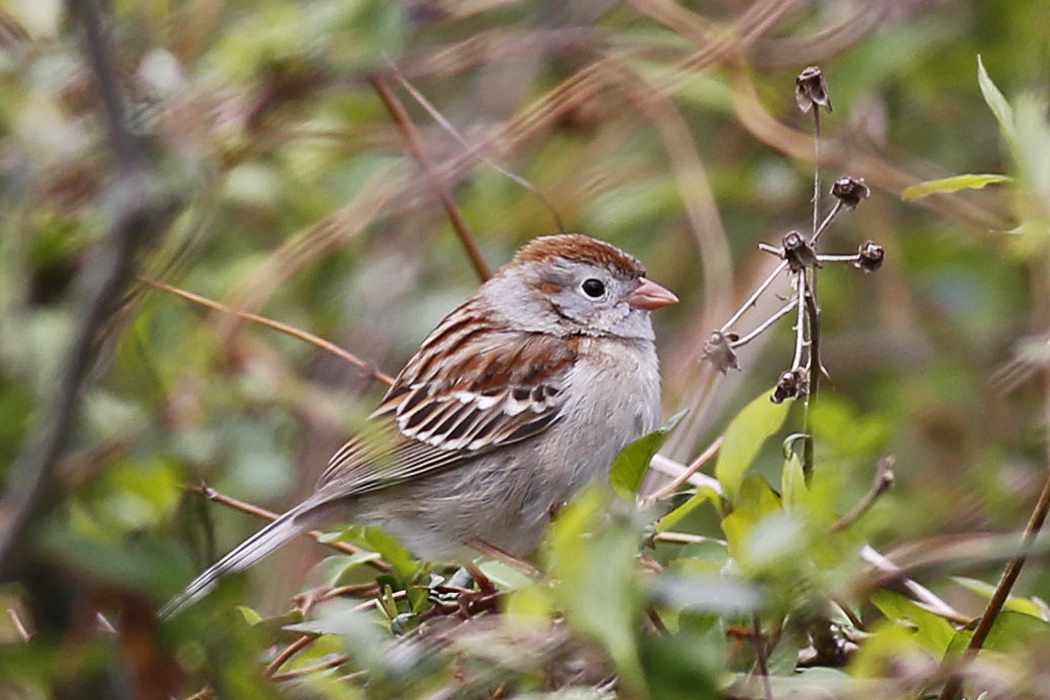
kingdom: Animalia
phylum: Chordata
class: Aves
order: Passeriformes
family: Passerellidae
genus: Spizella
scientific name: Spizella pusilla
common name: Field sparrow
